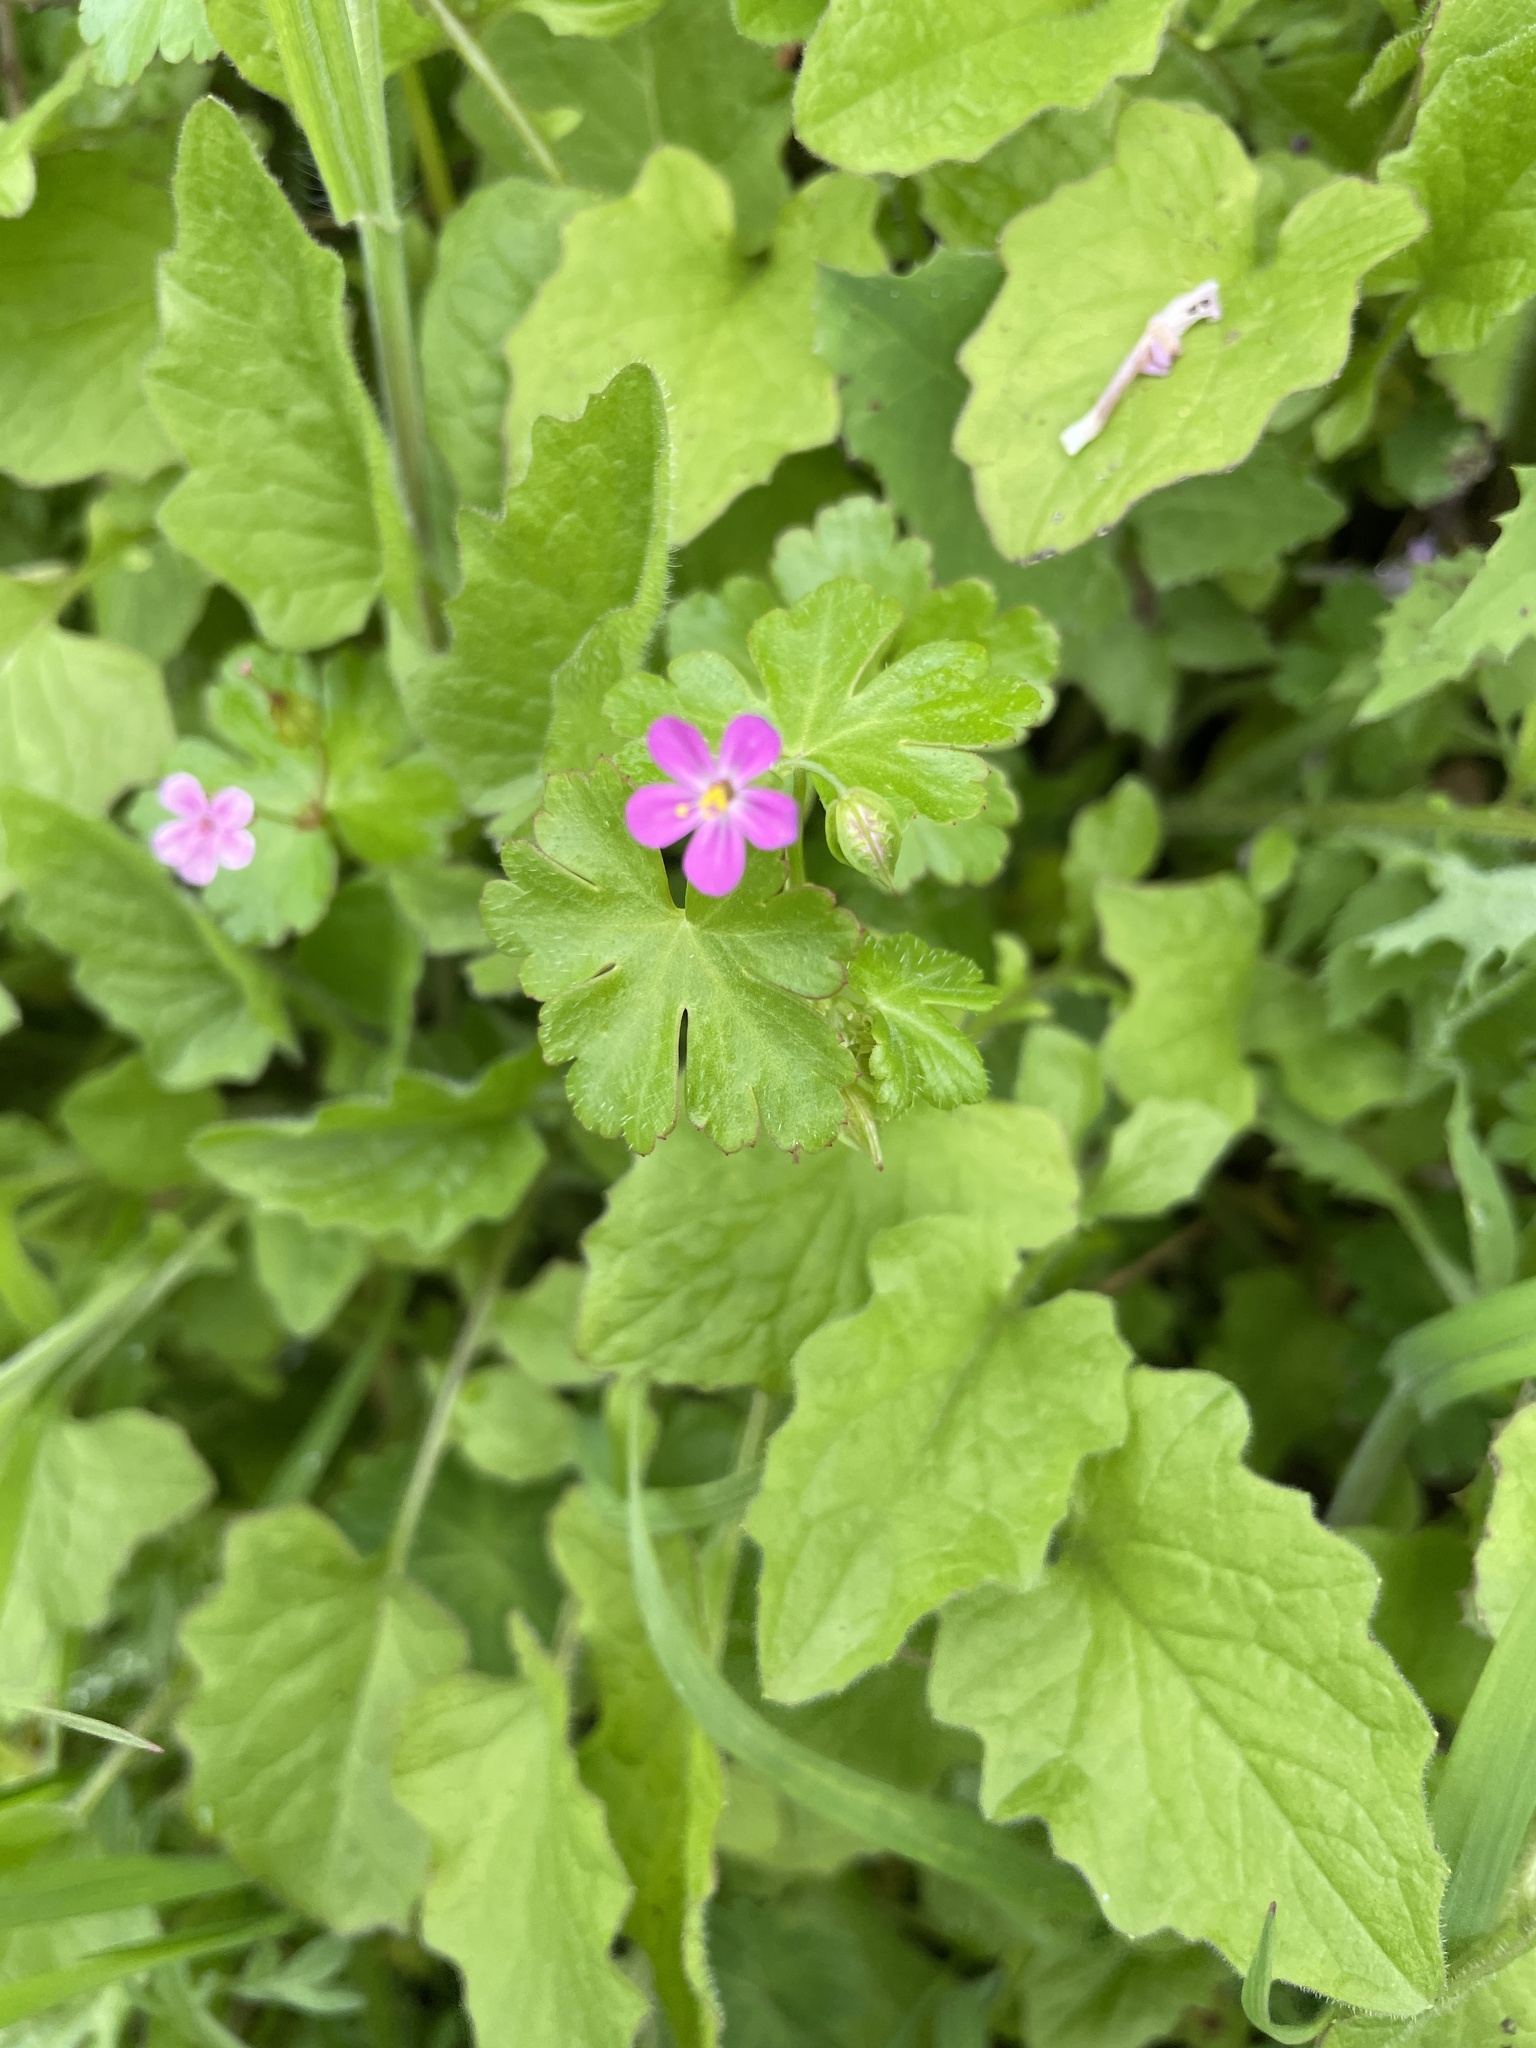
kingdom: Plantae
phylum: Tracheophyta
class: Magnoliopsida
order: Geraniales
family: Geraniaceae
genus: Geranium
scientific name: Geranium lucidum
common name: Shining crane's-bill
